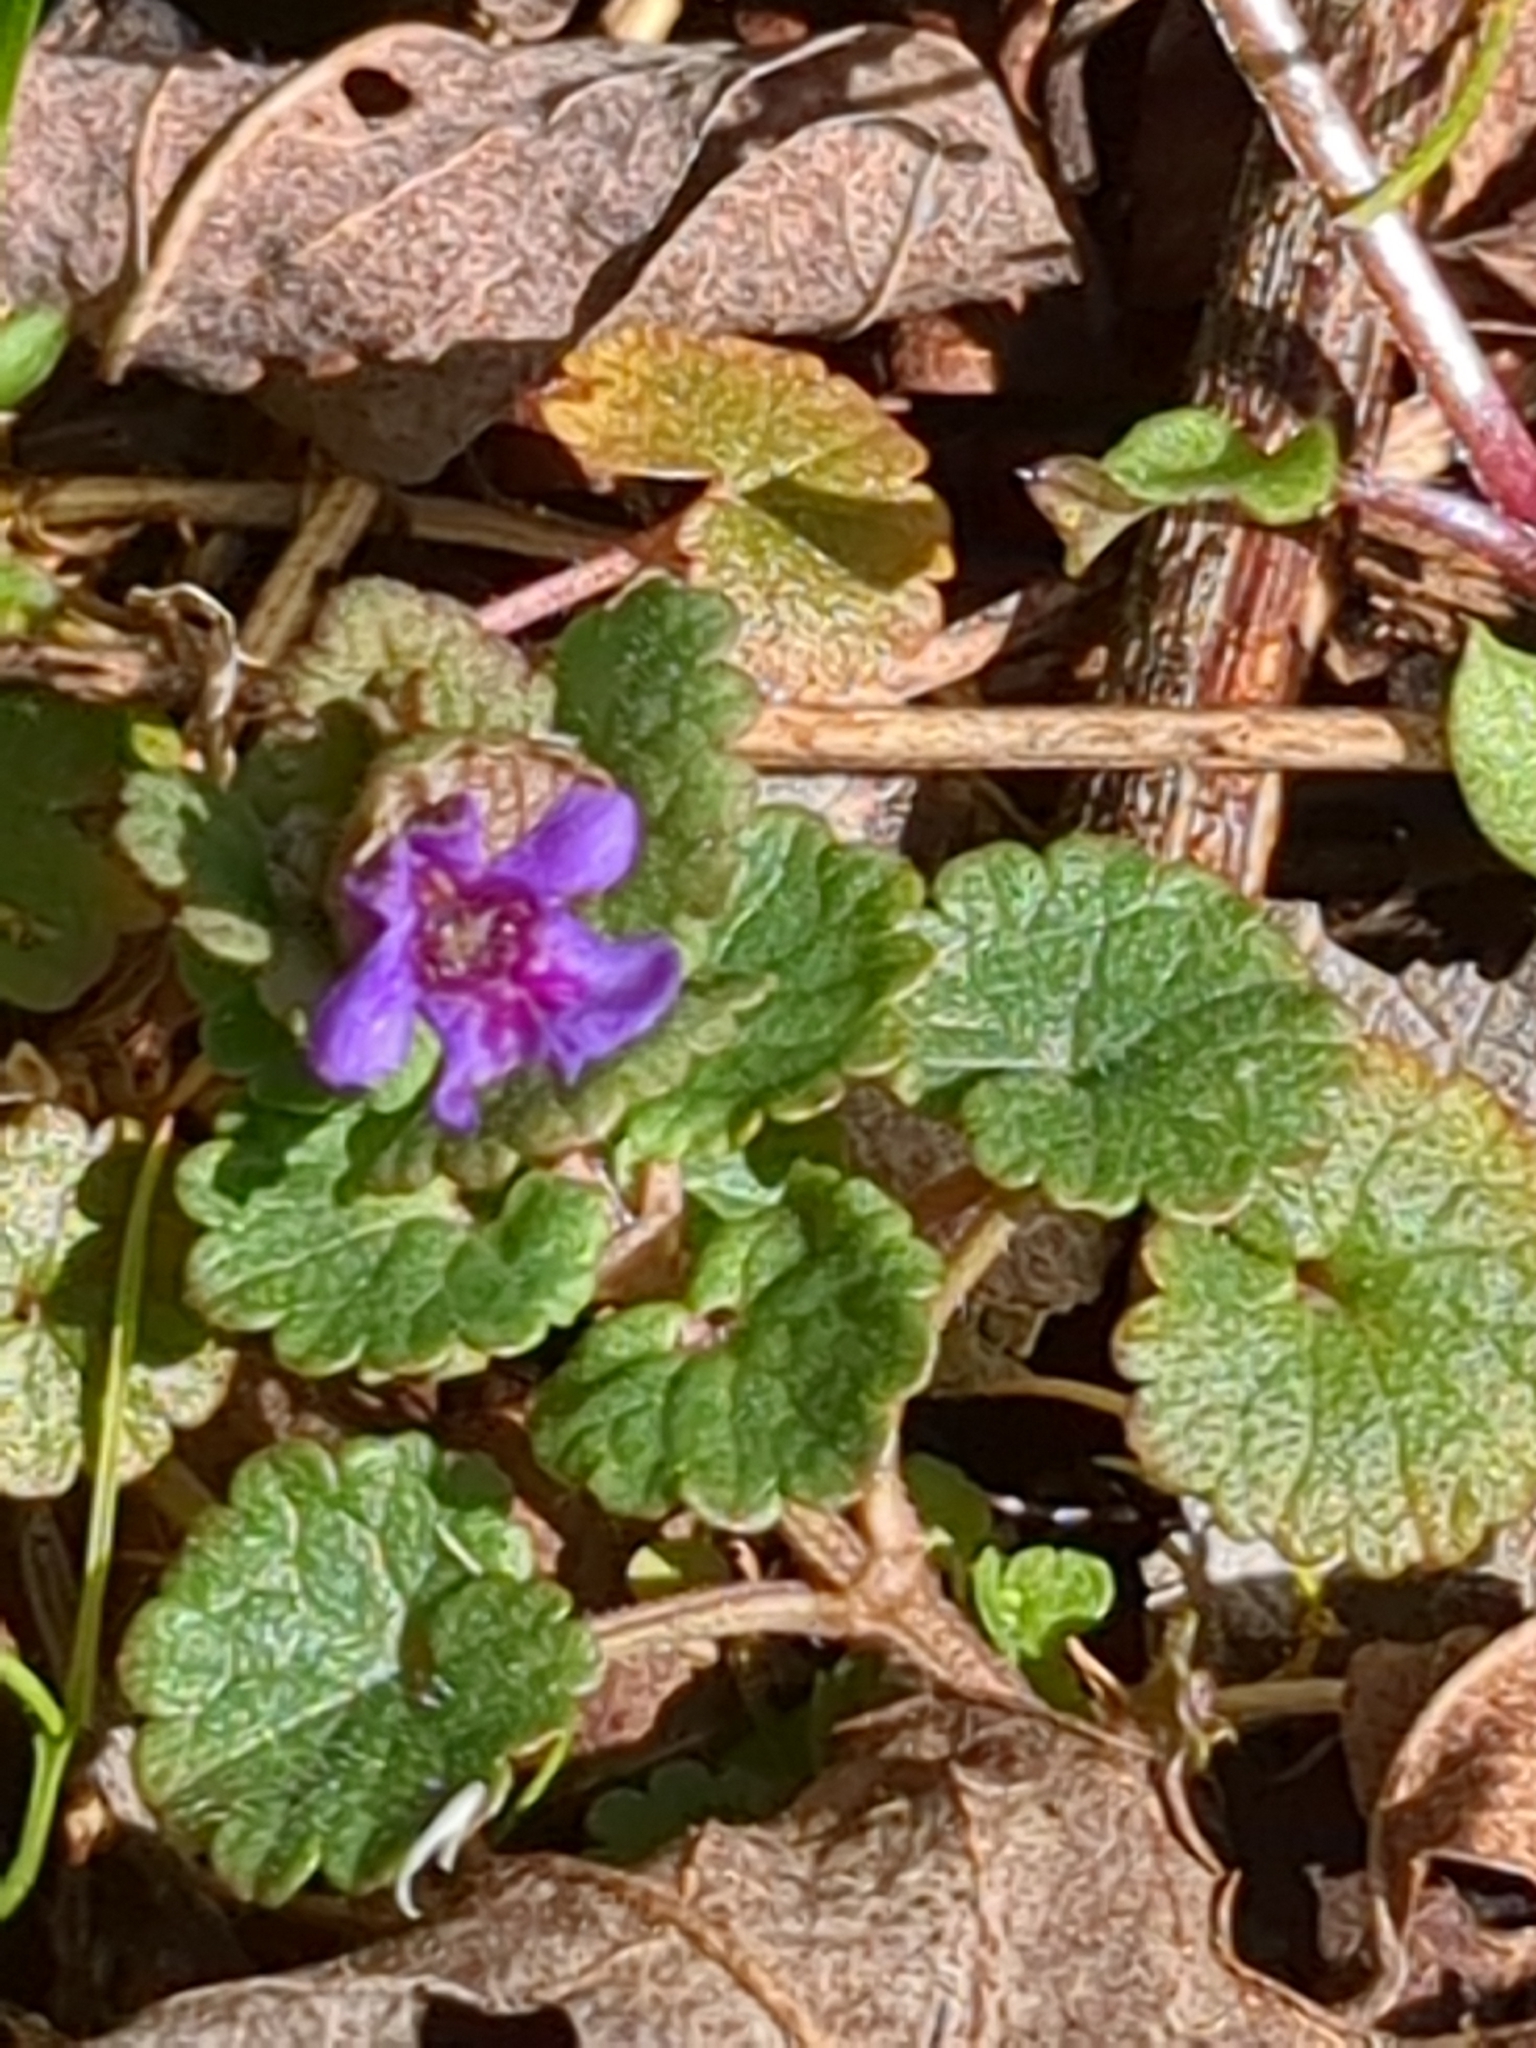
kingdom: Plantae
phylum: Tracheophyta
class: Magnoliopsida
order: Lamiales
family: Lamiaceae
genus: Glechoma
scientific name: Glechoma hederacea
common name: Ground ivy
